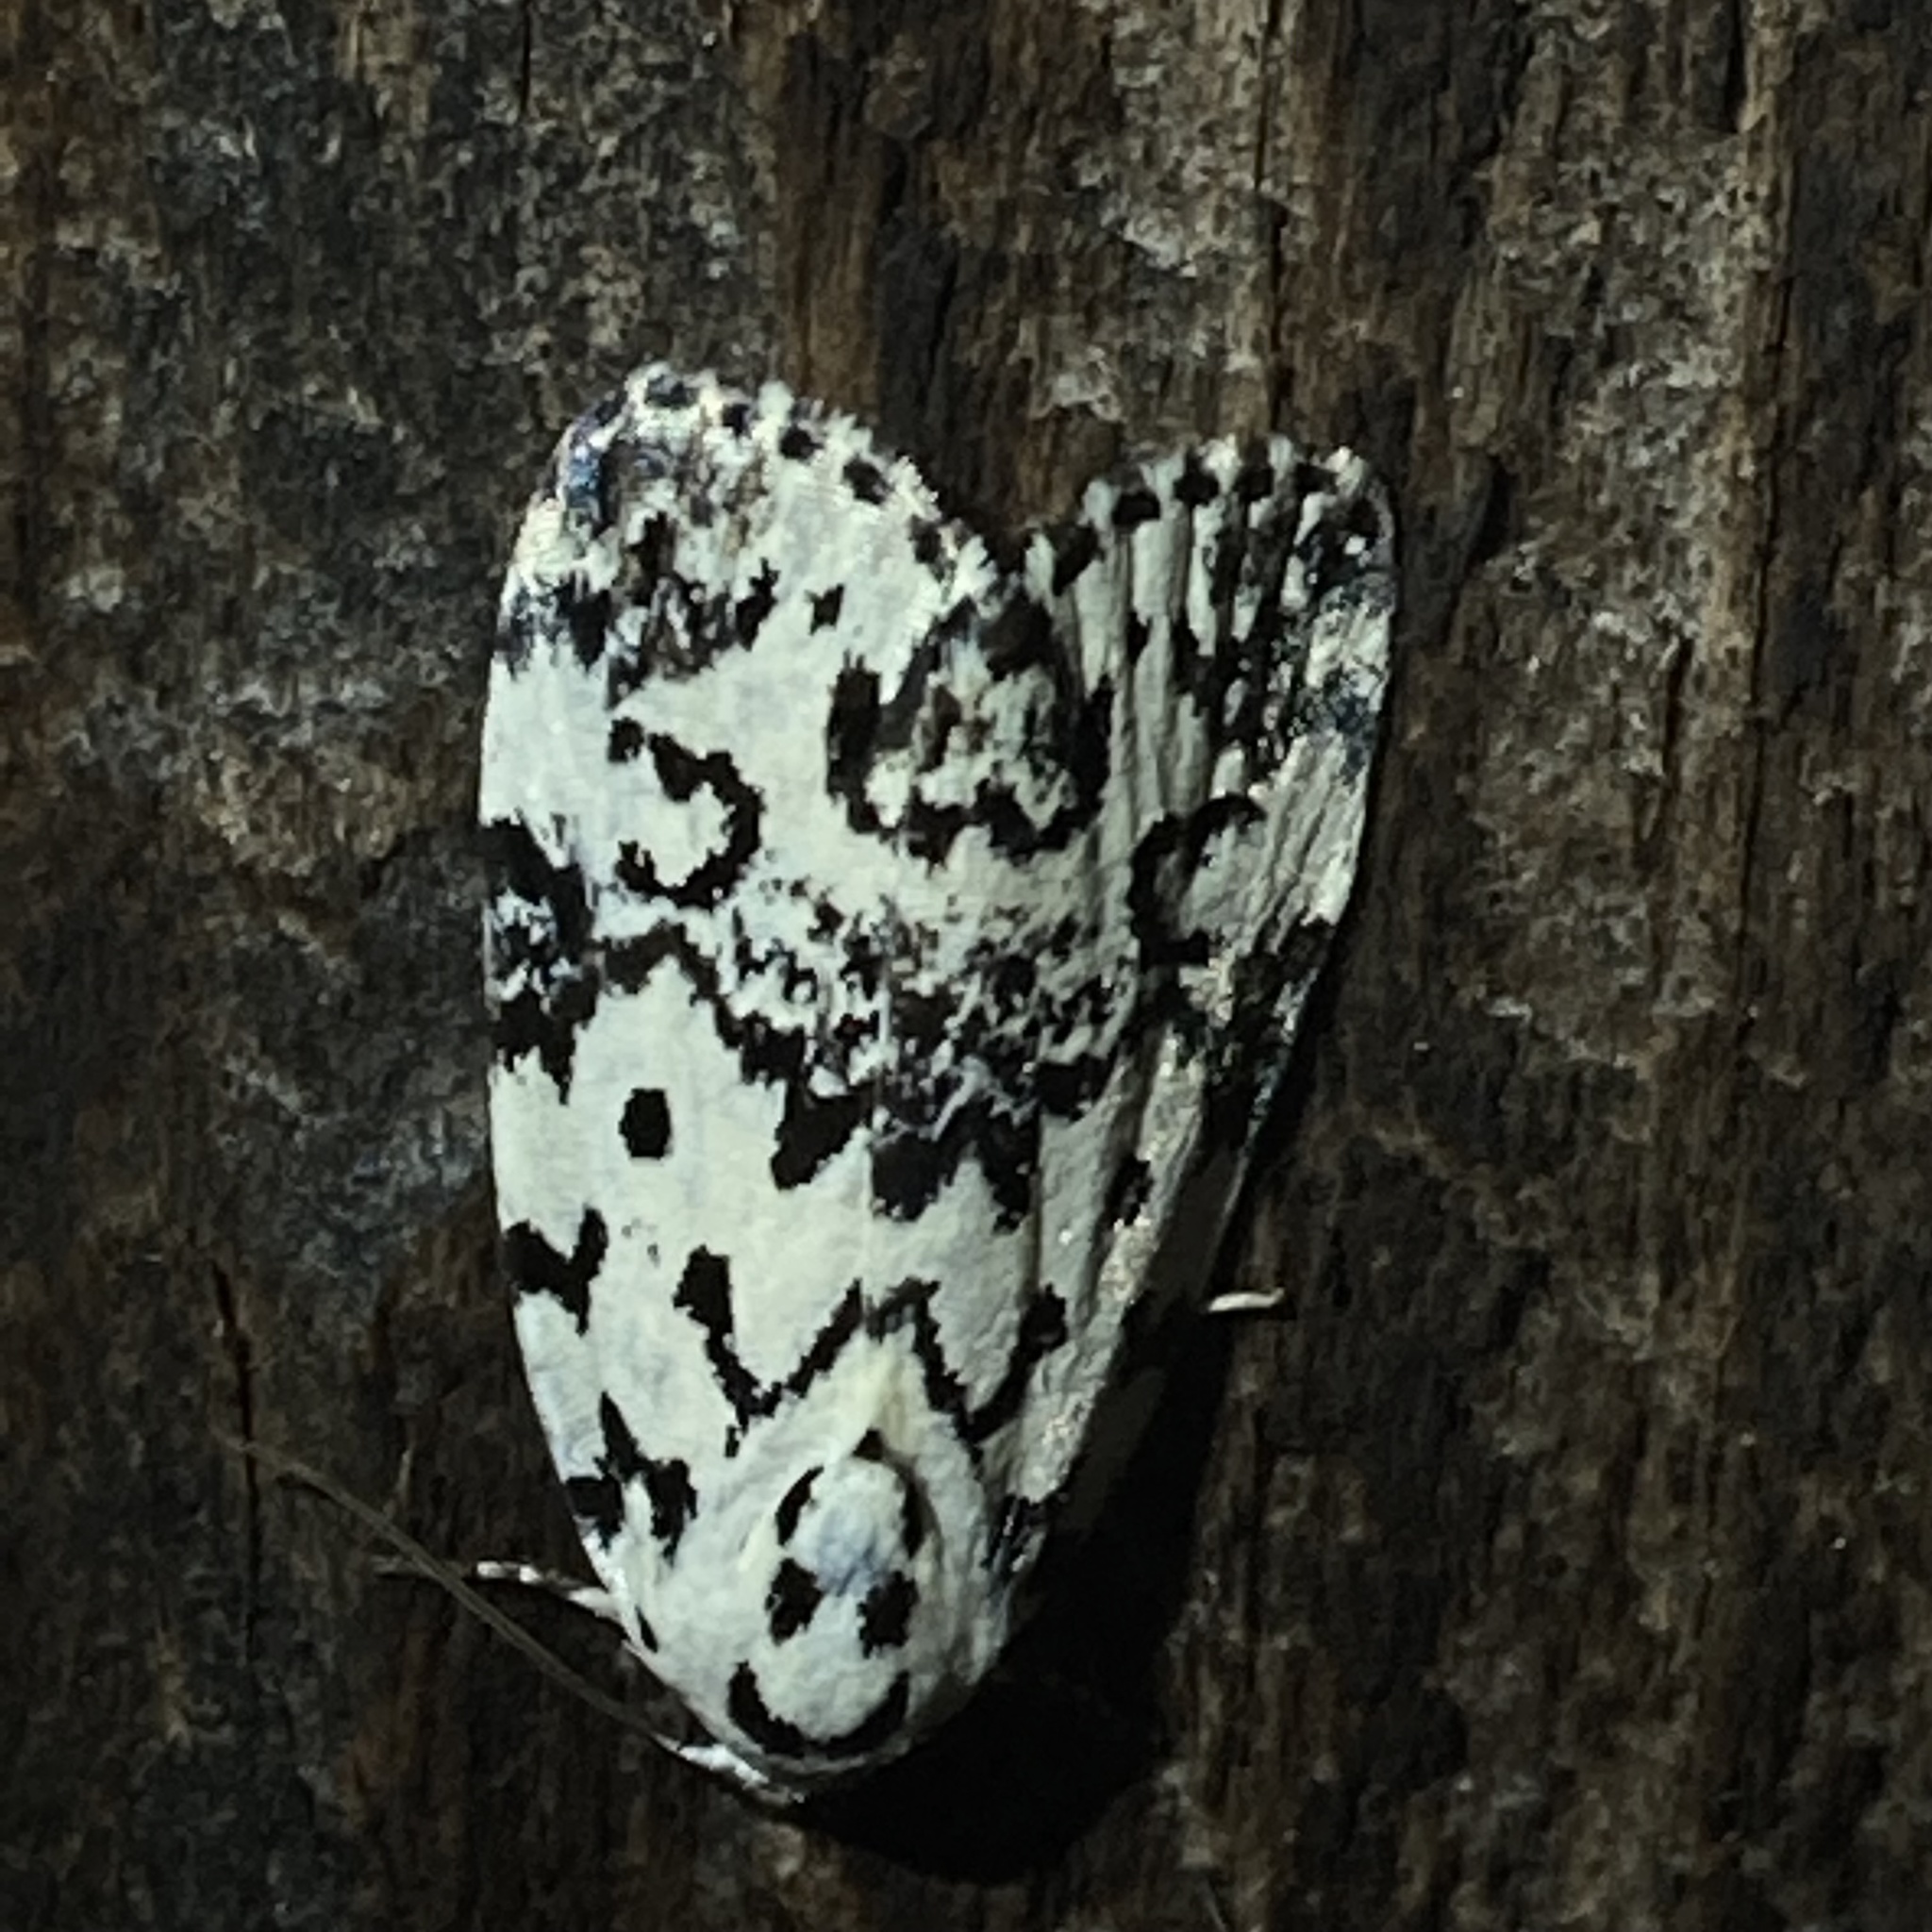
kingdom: Animalia
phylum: Arthropoda
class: Insecta
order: Lepidoptera
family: Noctuidae
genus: Polygrammate
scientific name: Polygrammate hebraeicum
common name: Hebrew moth
